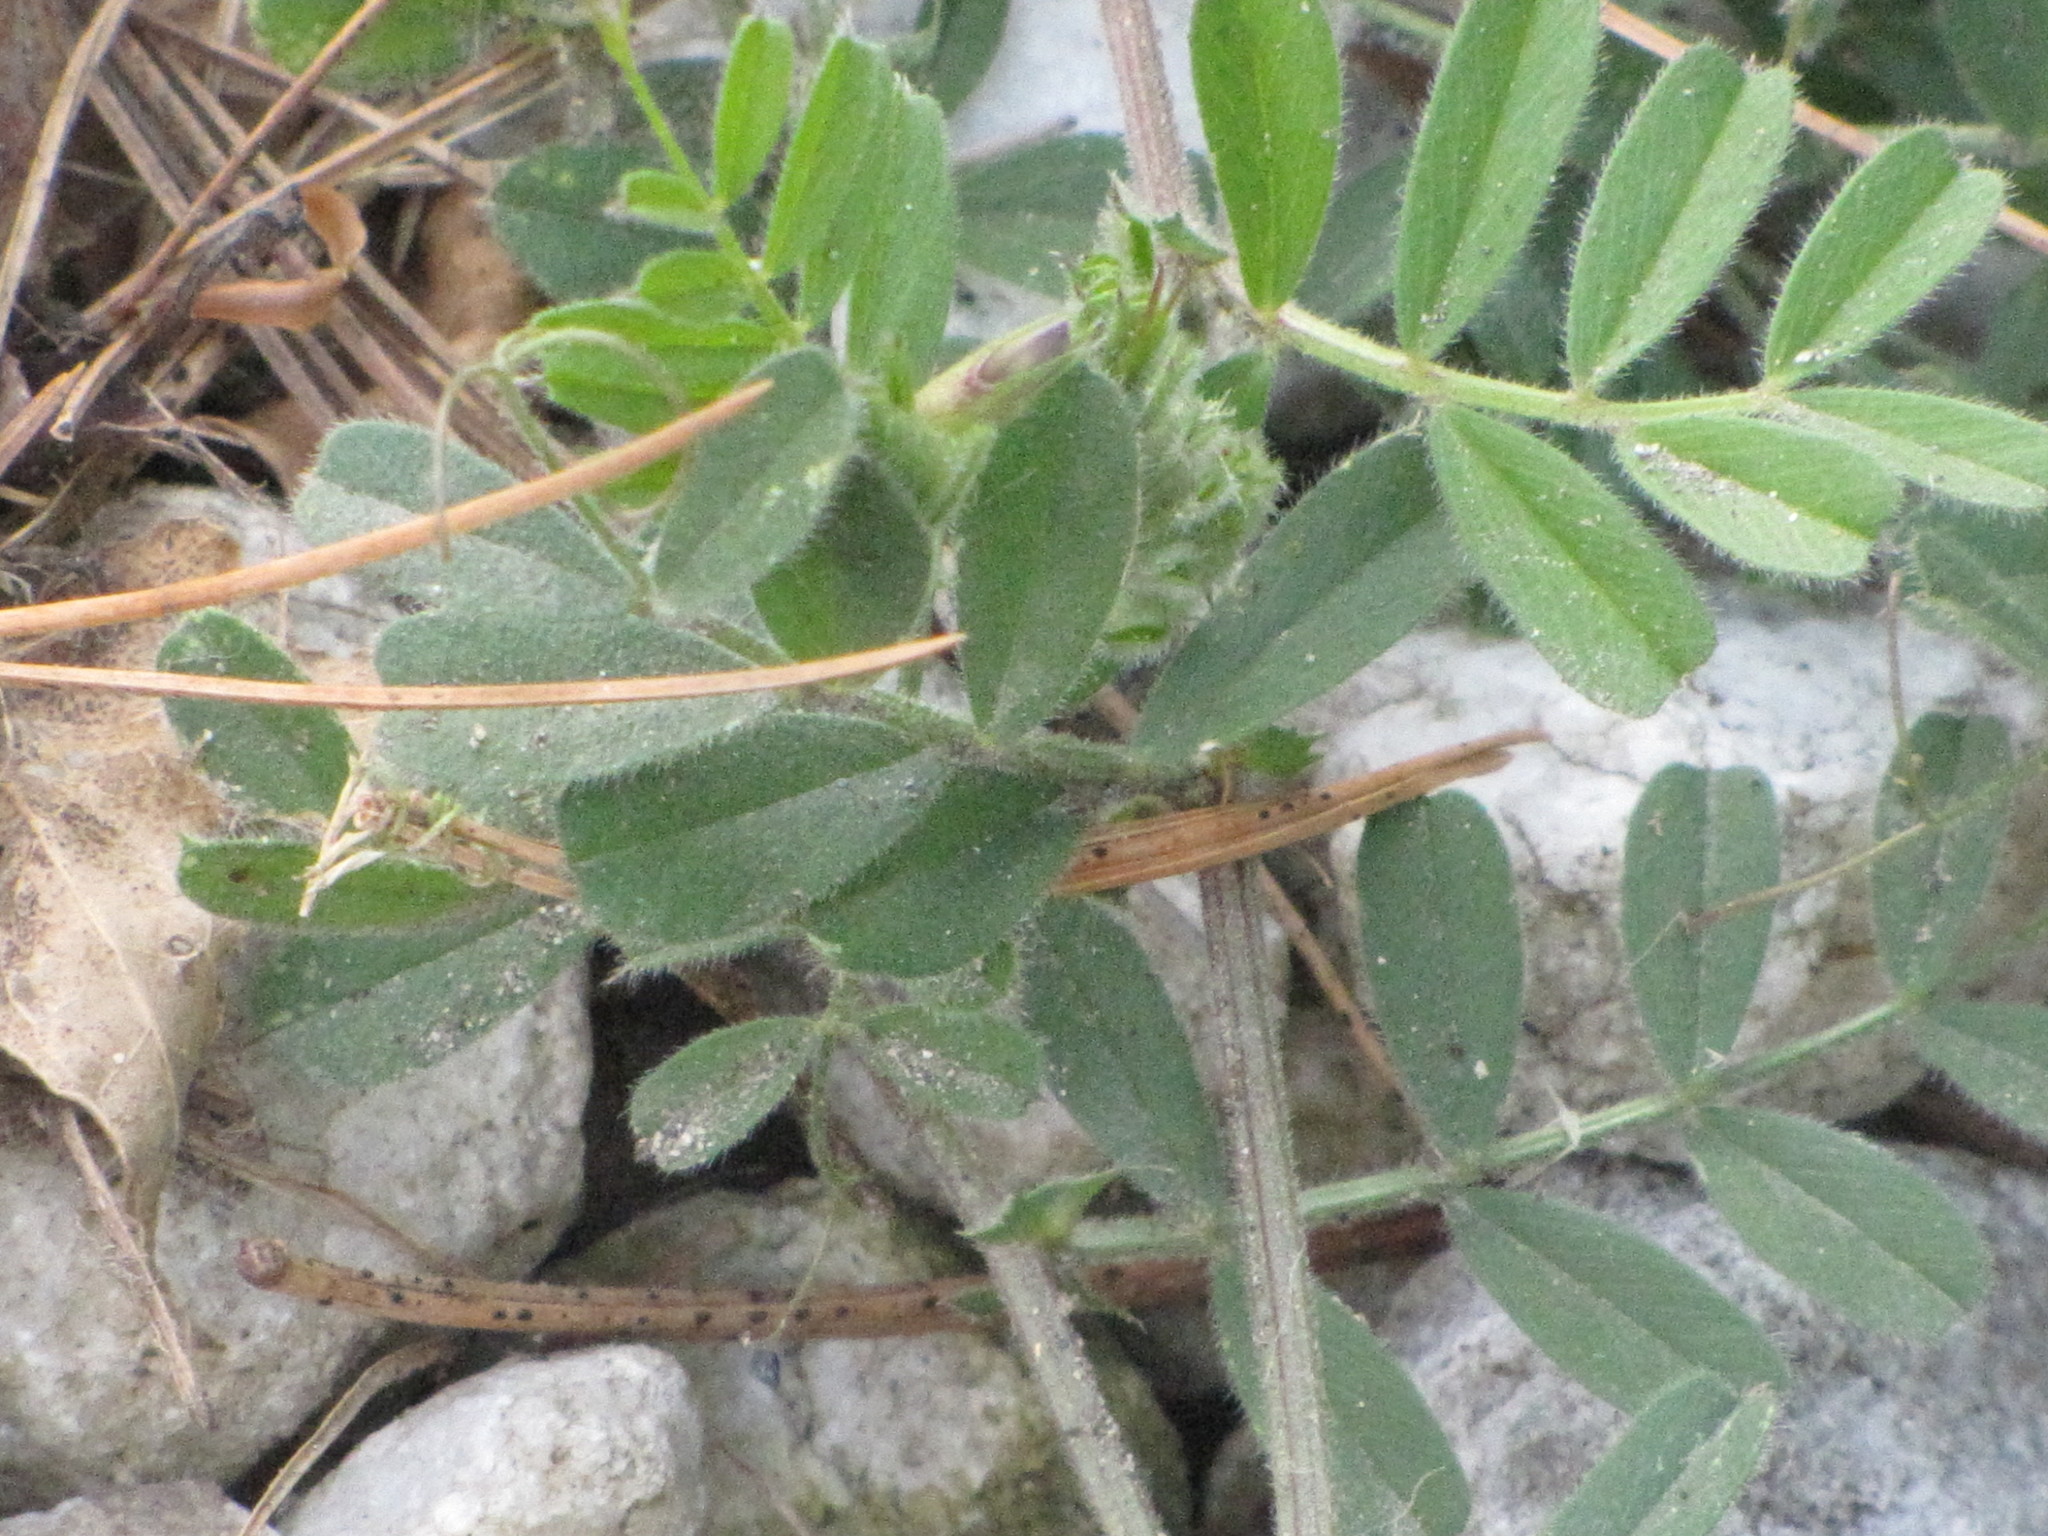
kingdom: Plantae
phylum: Tracheophyta
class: Magnoliopsida
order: Fabales
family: Fabaceae
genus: Vicia
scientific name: Vicia sativa
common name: Garden vetch
